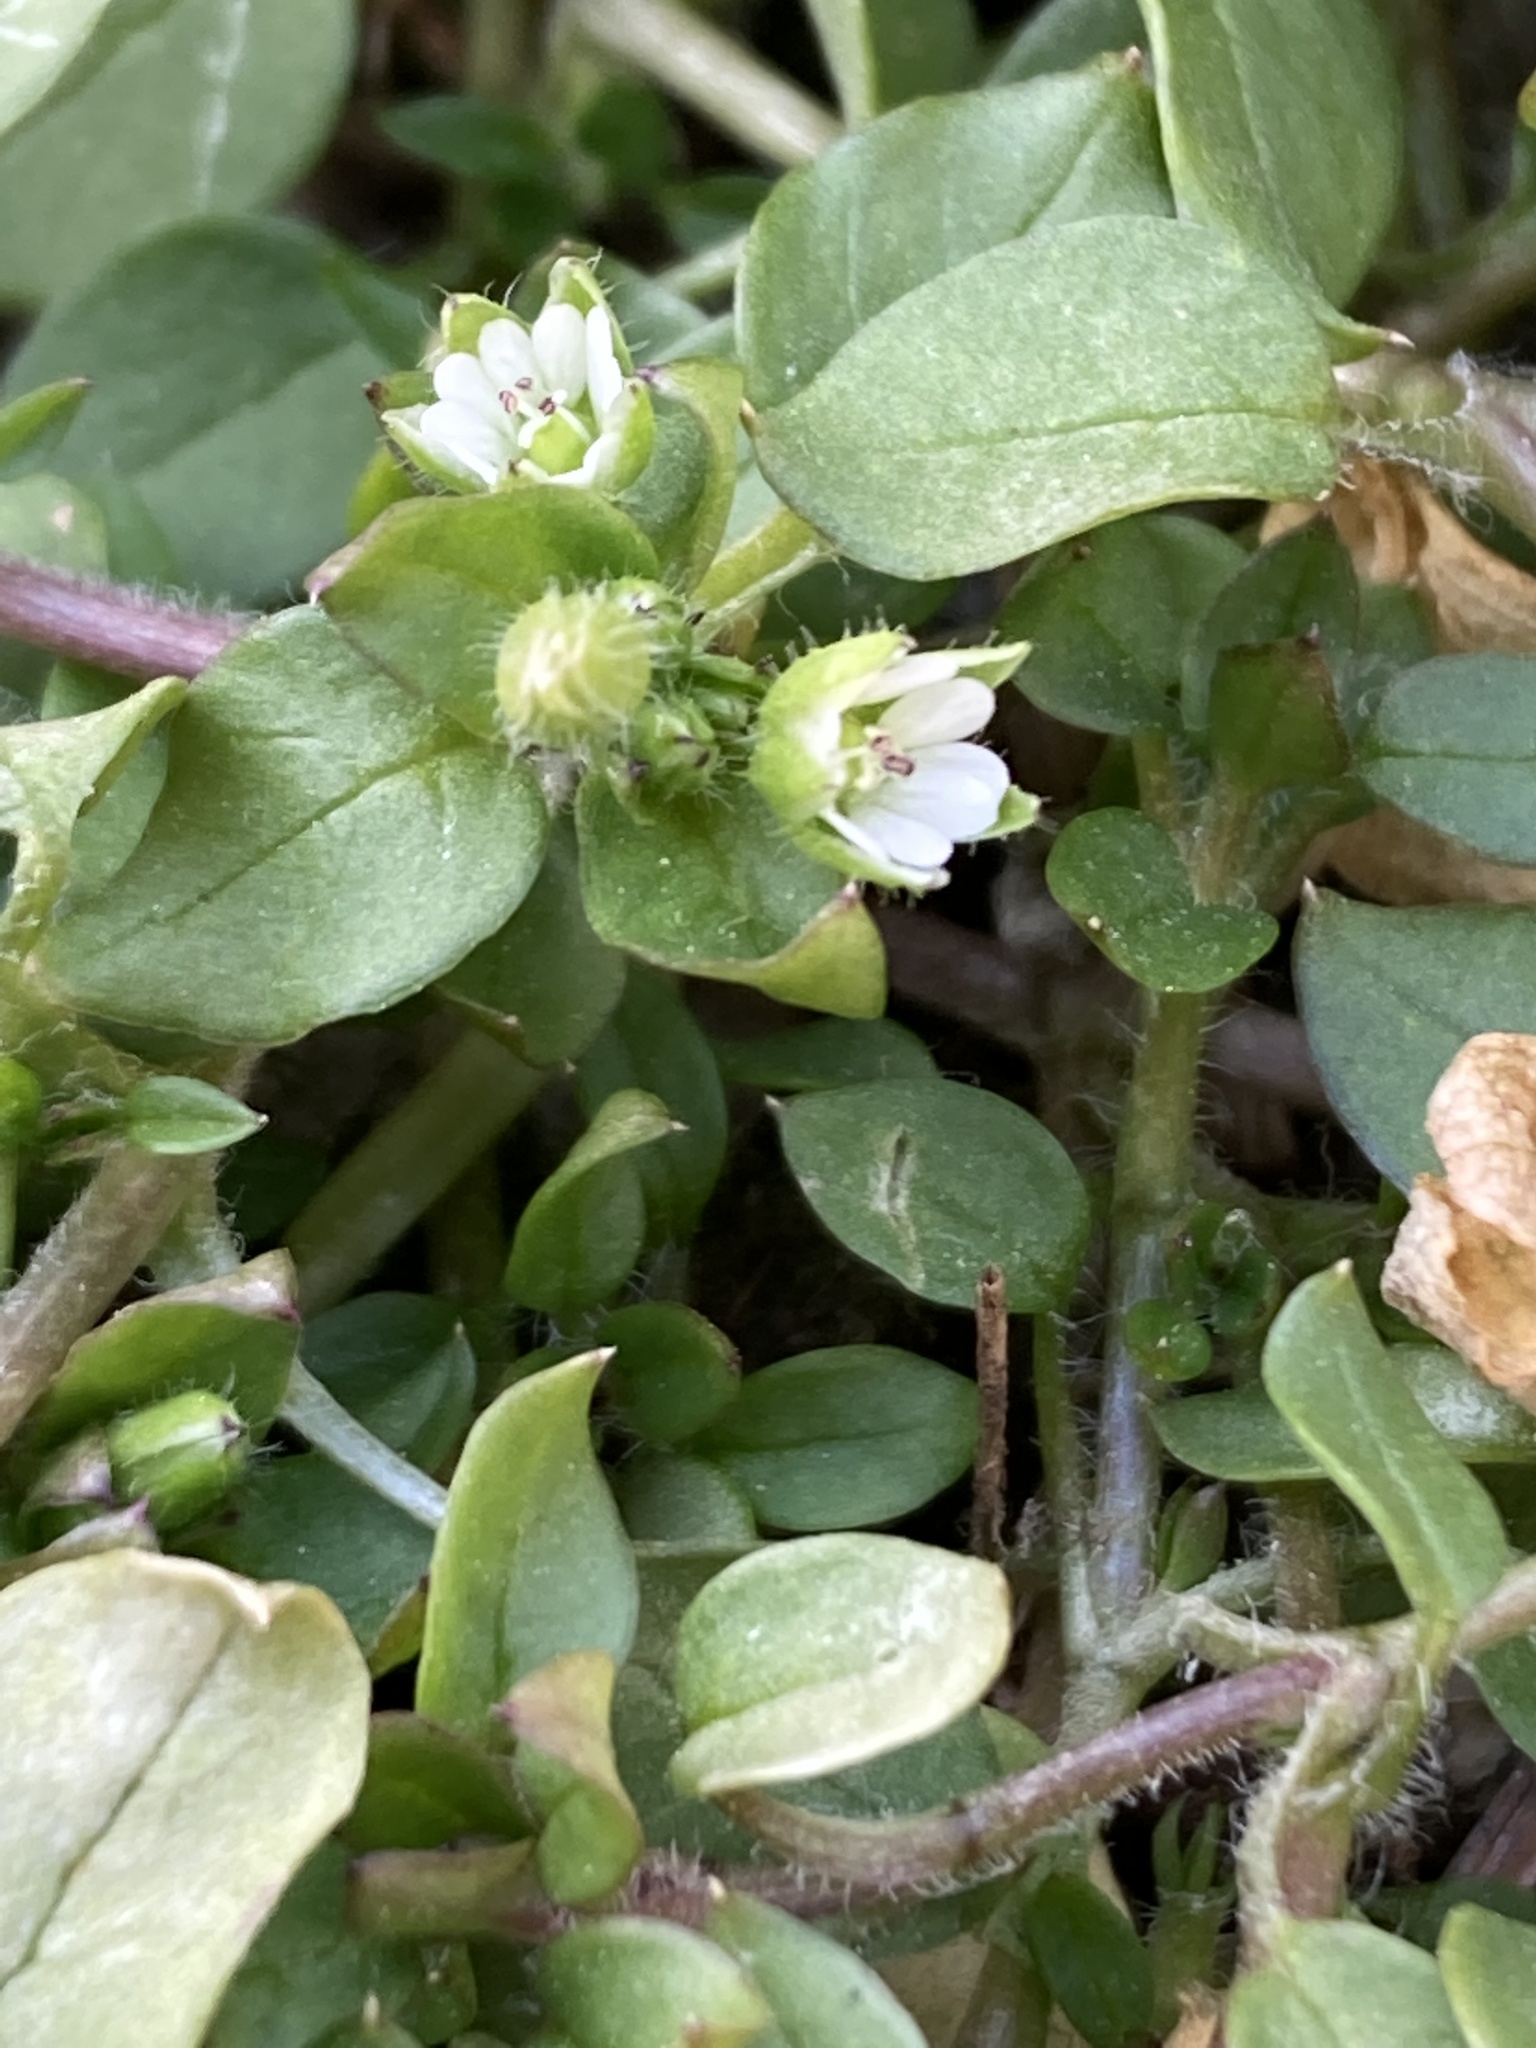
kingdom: Plantae
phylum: Tracheophyta
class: Magnoliopsida
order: Caryophyllales
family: Caryophyllaceae
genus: Stellaria
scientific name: Stellaria media
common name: Common chickweed
